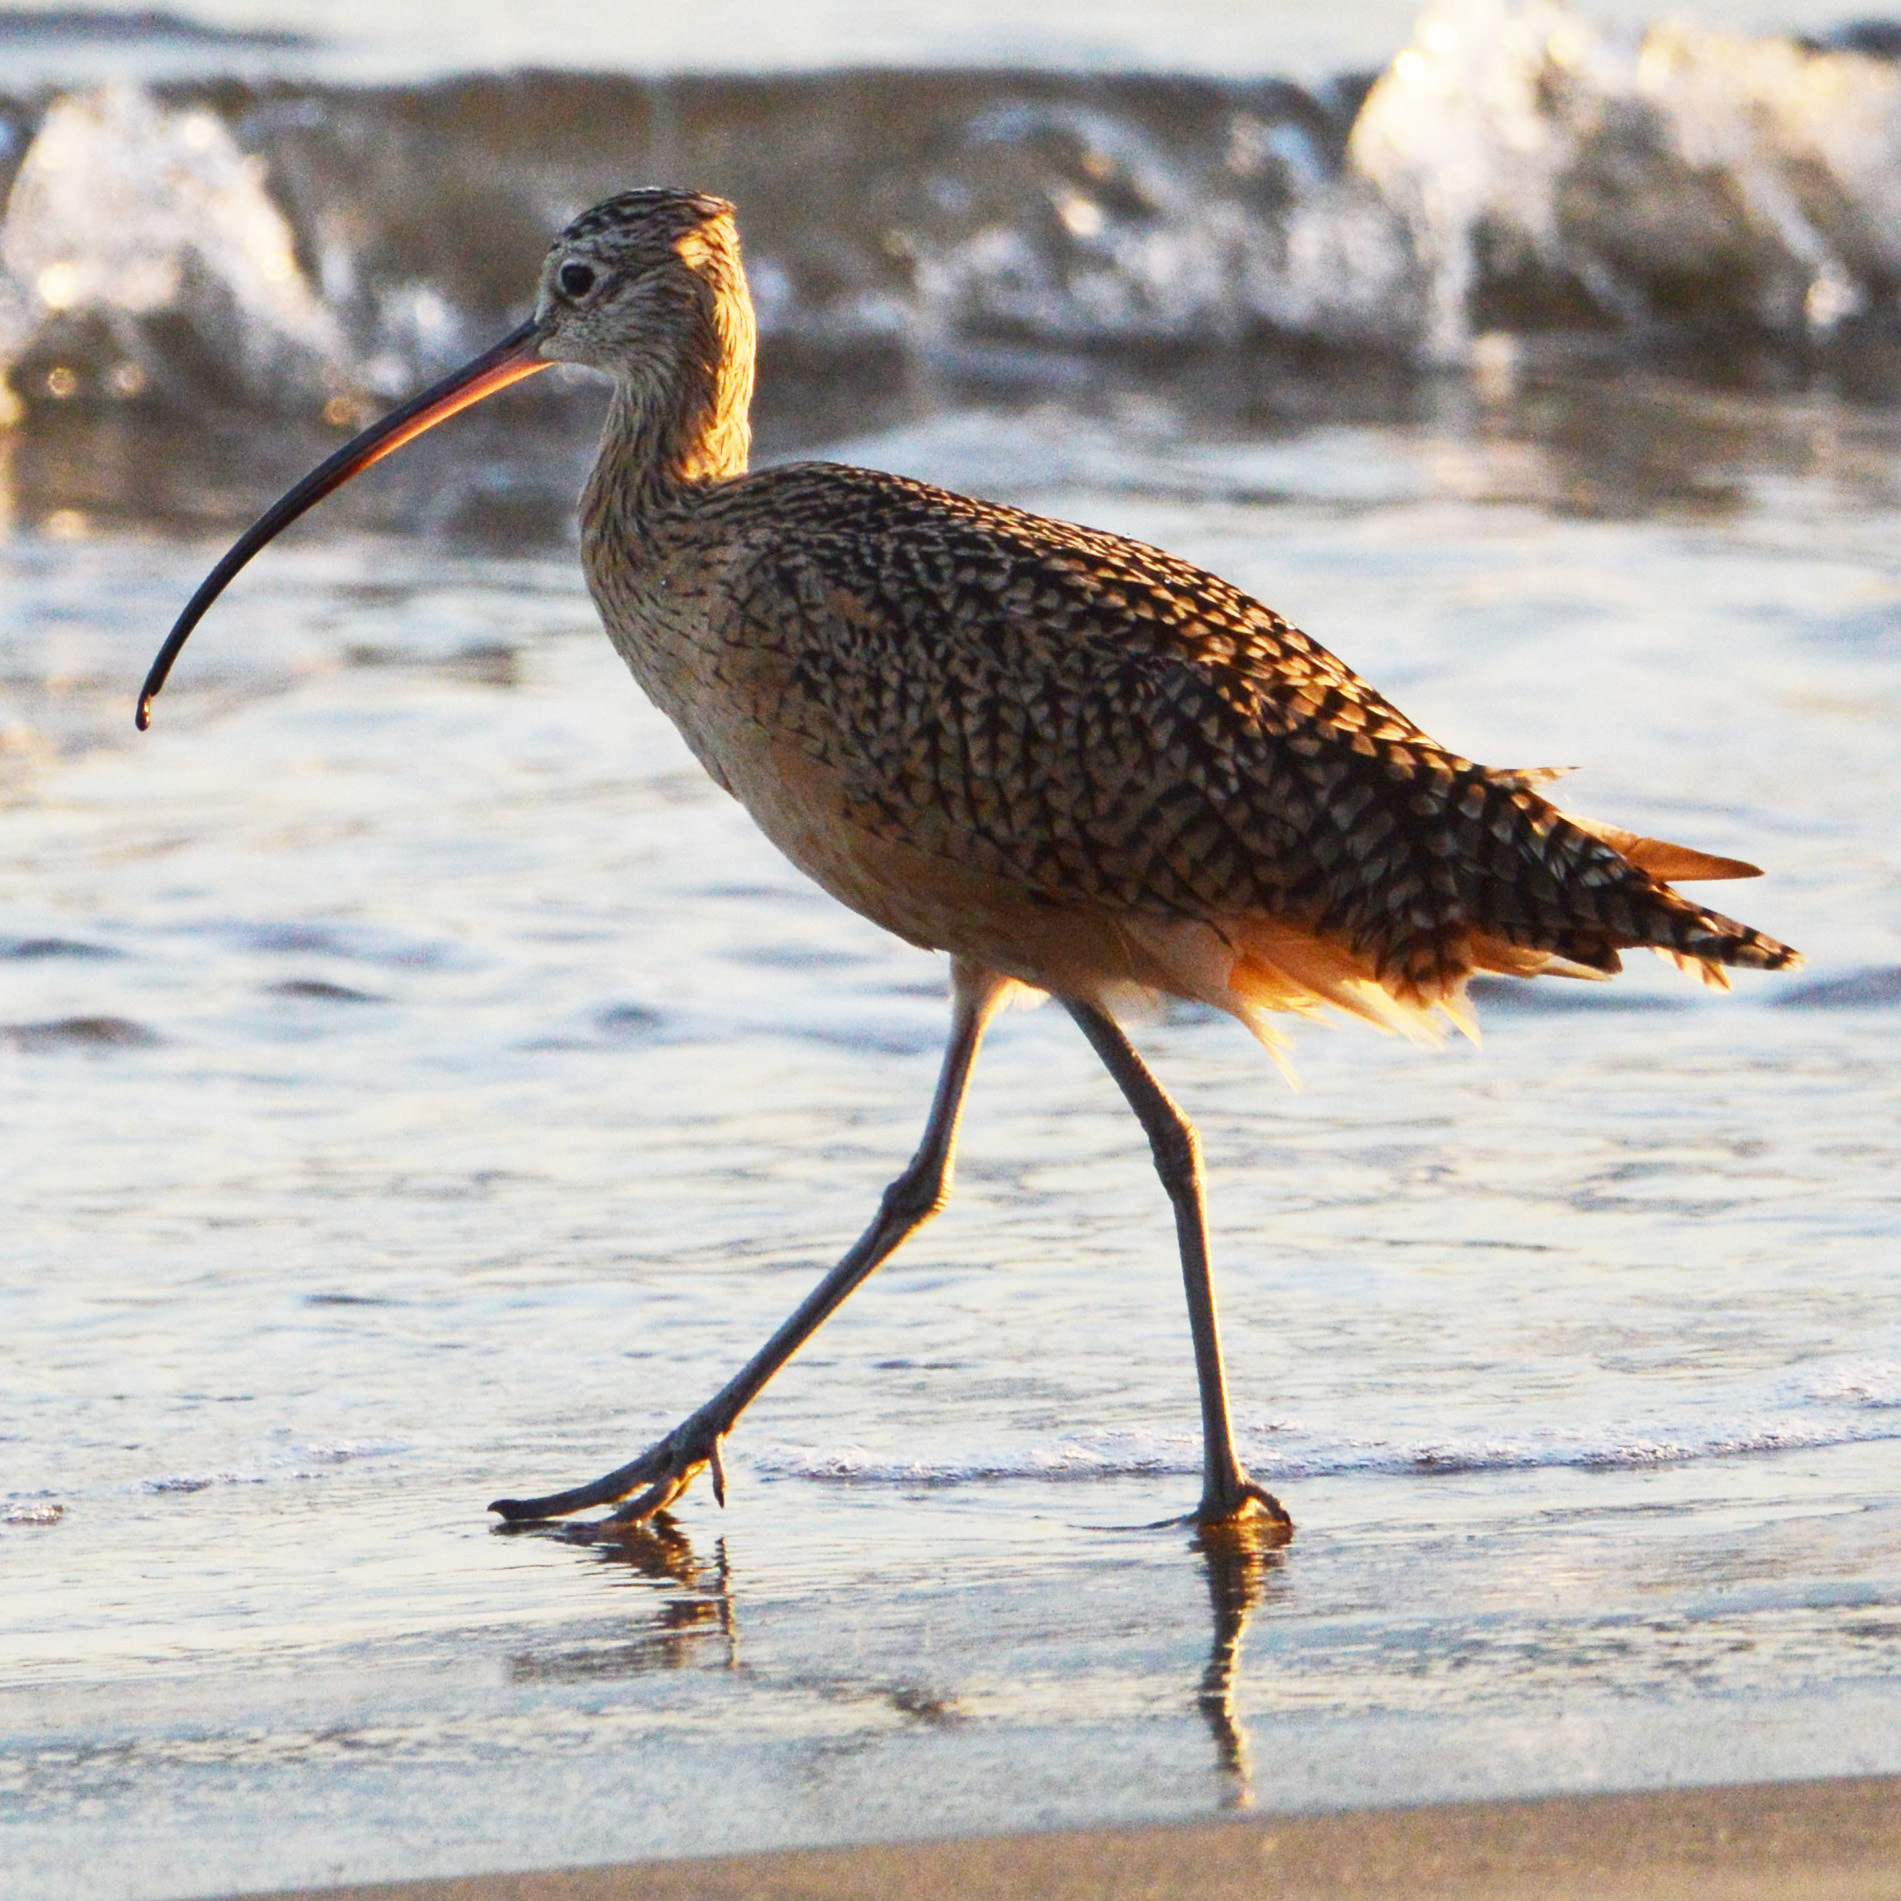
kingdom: Animalia
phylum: Chordata
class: Aves
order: Charadriiformes
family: Scolopacidae
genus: Numenius
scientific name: Numenius americanus
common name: Long-billed curlew
